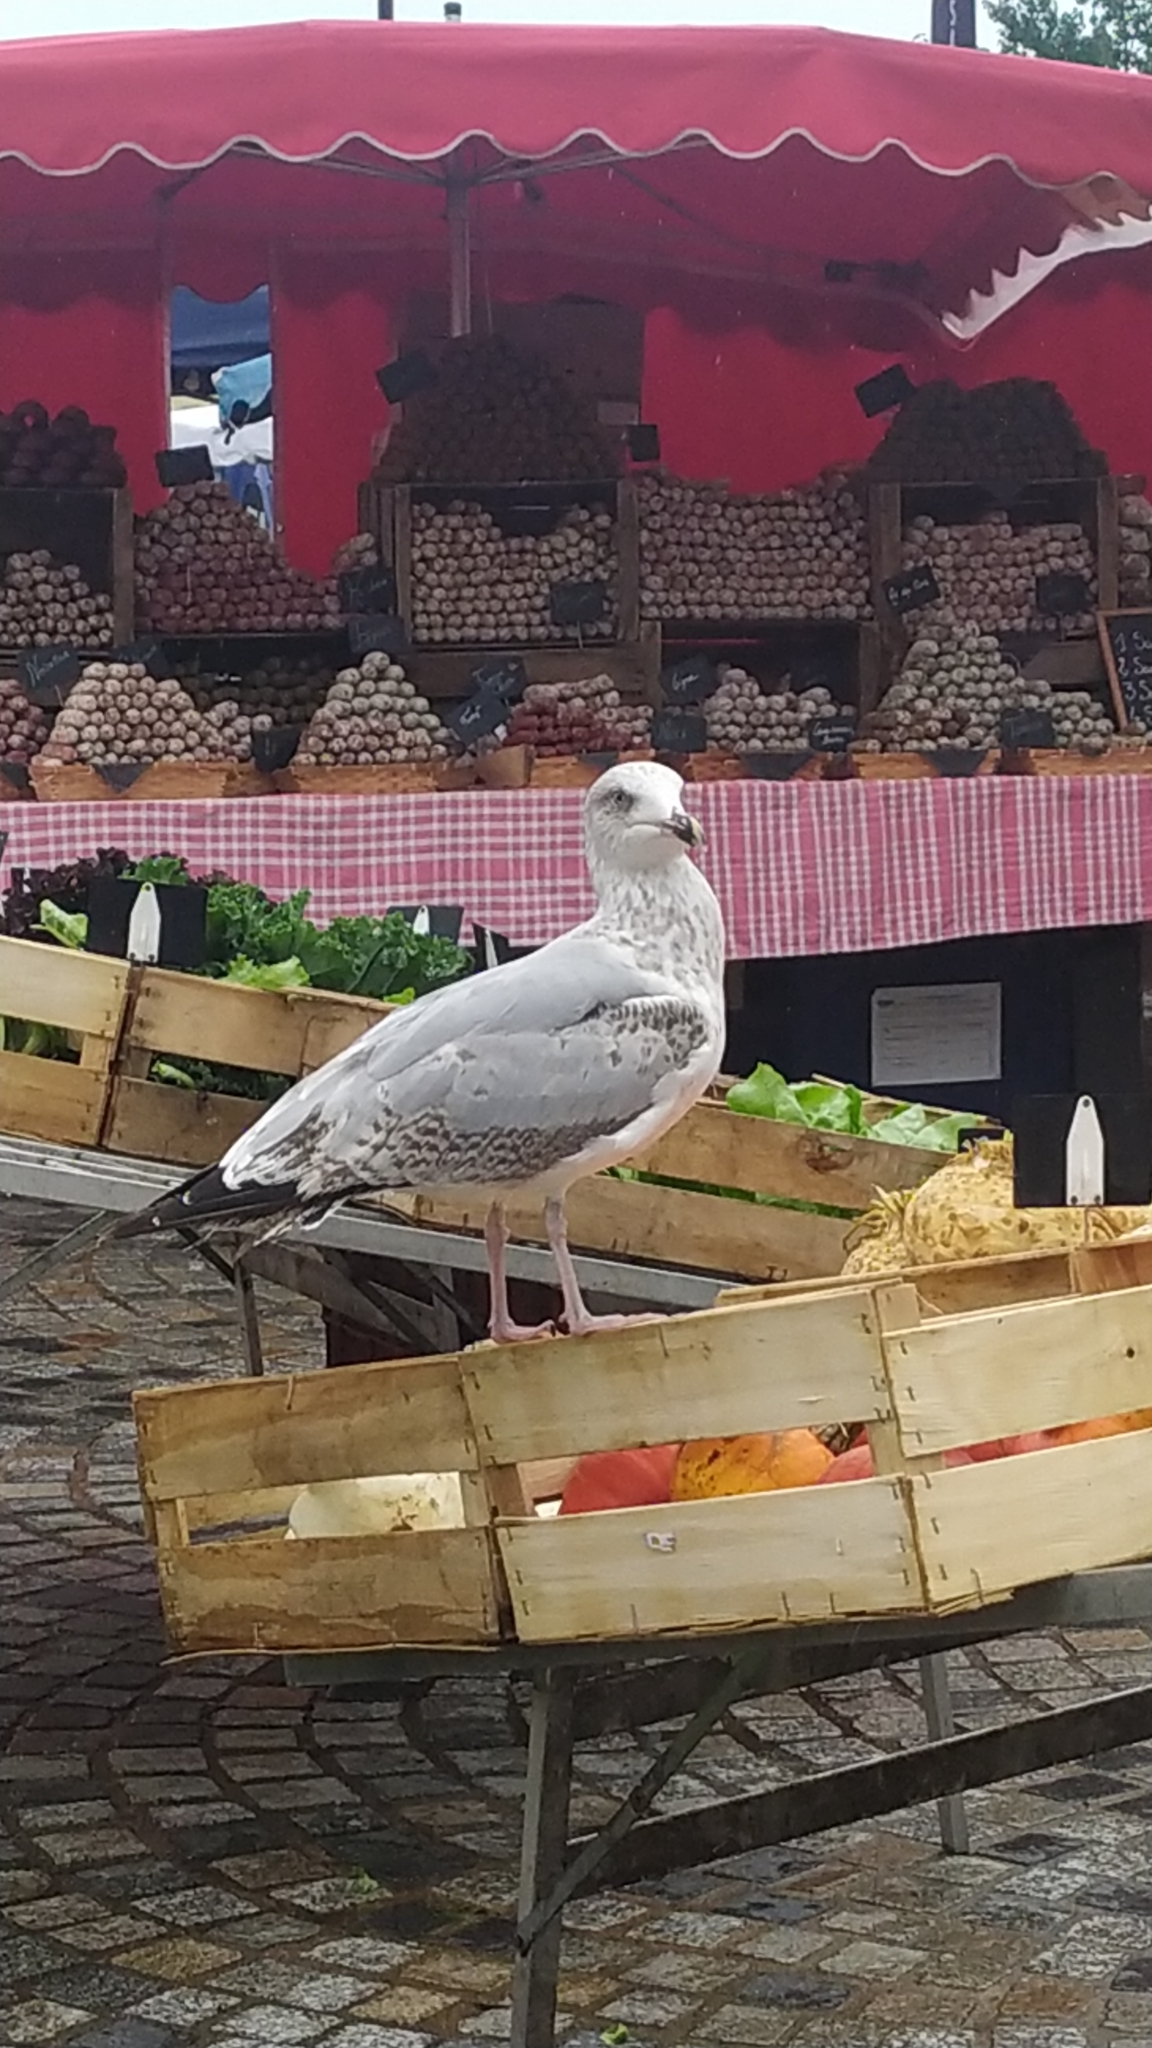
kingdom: Animalia
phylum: Chordata
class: Aves
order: Charadriiformes
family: Laridae
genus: Larus
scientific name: Larus argentatus
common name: Herring gull
